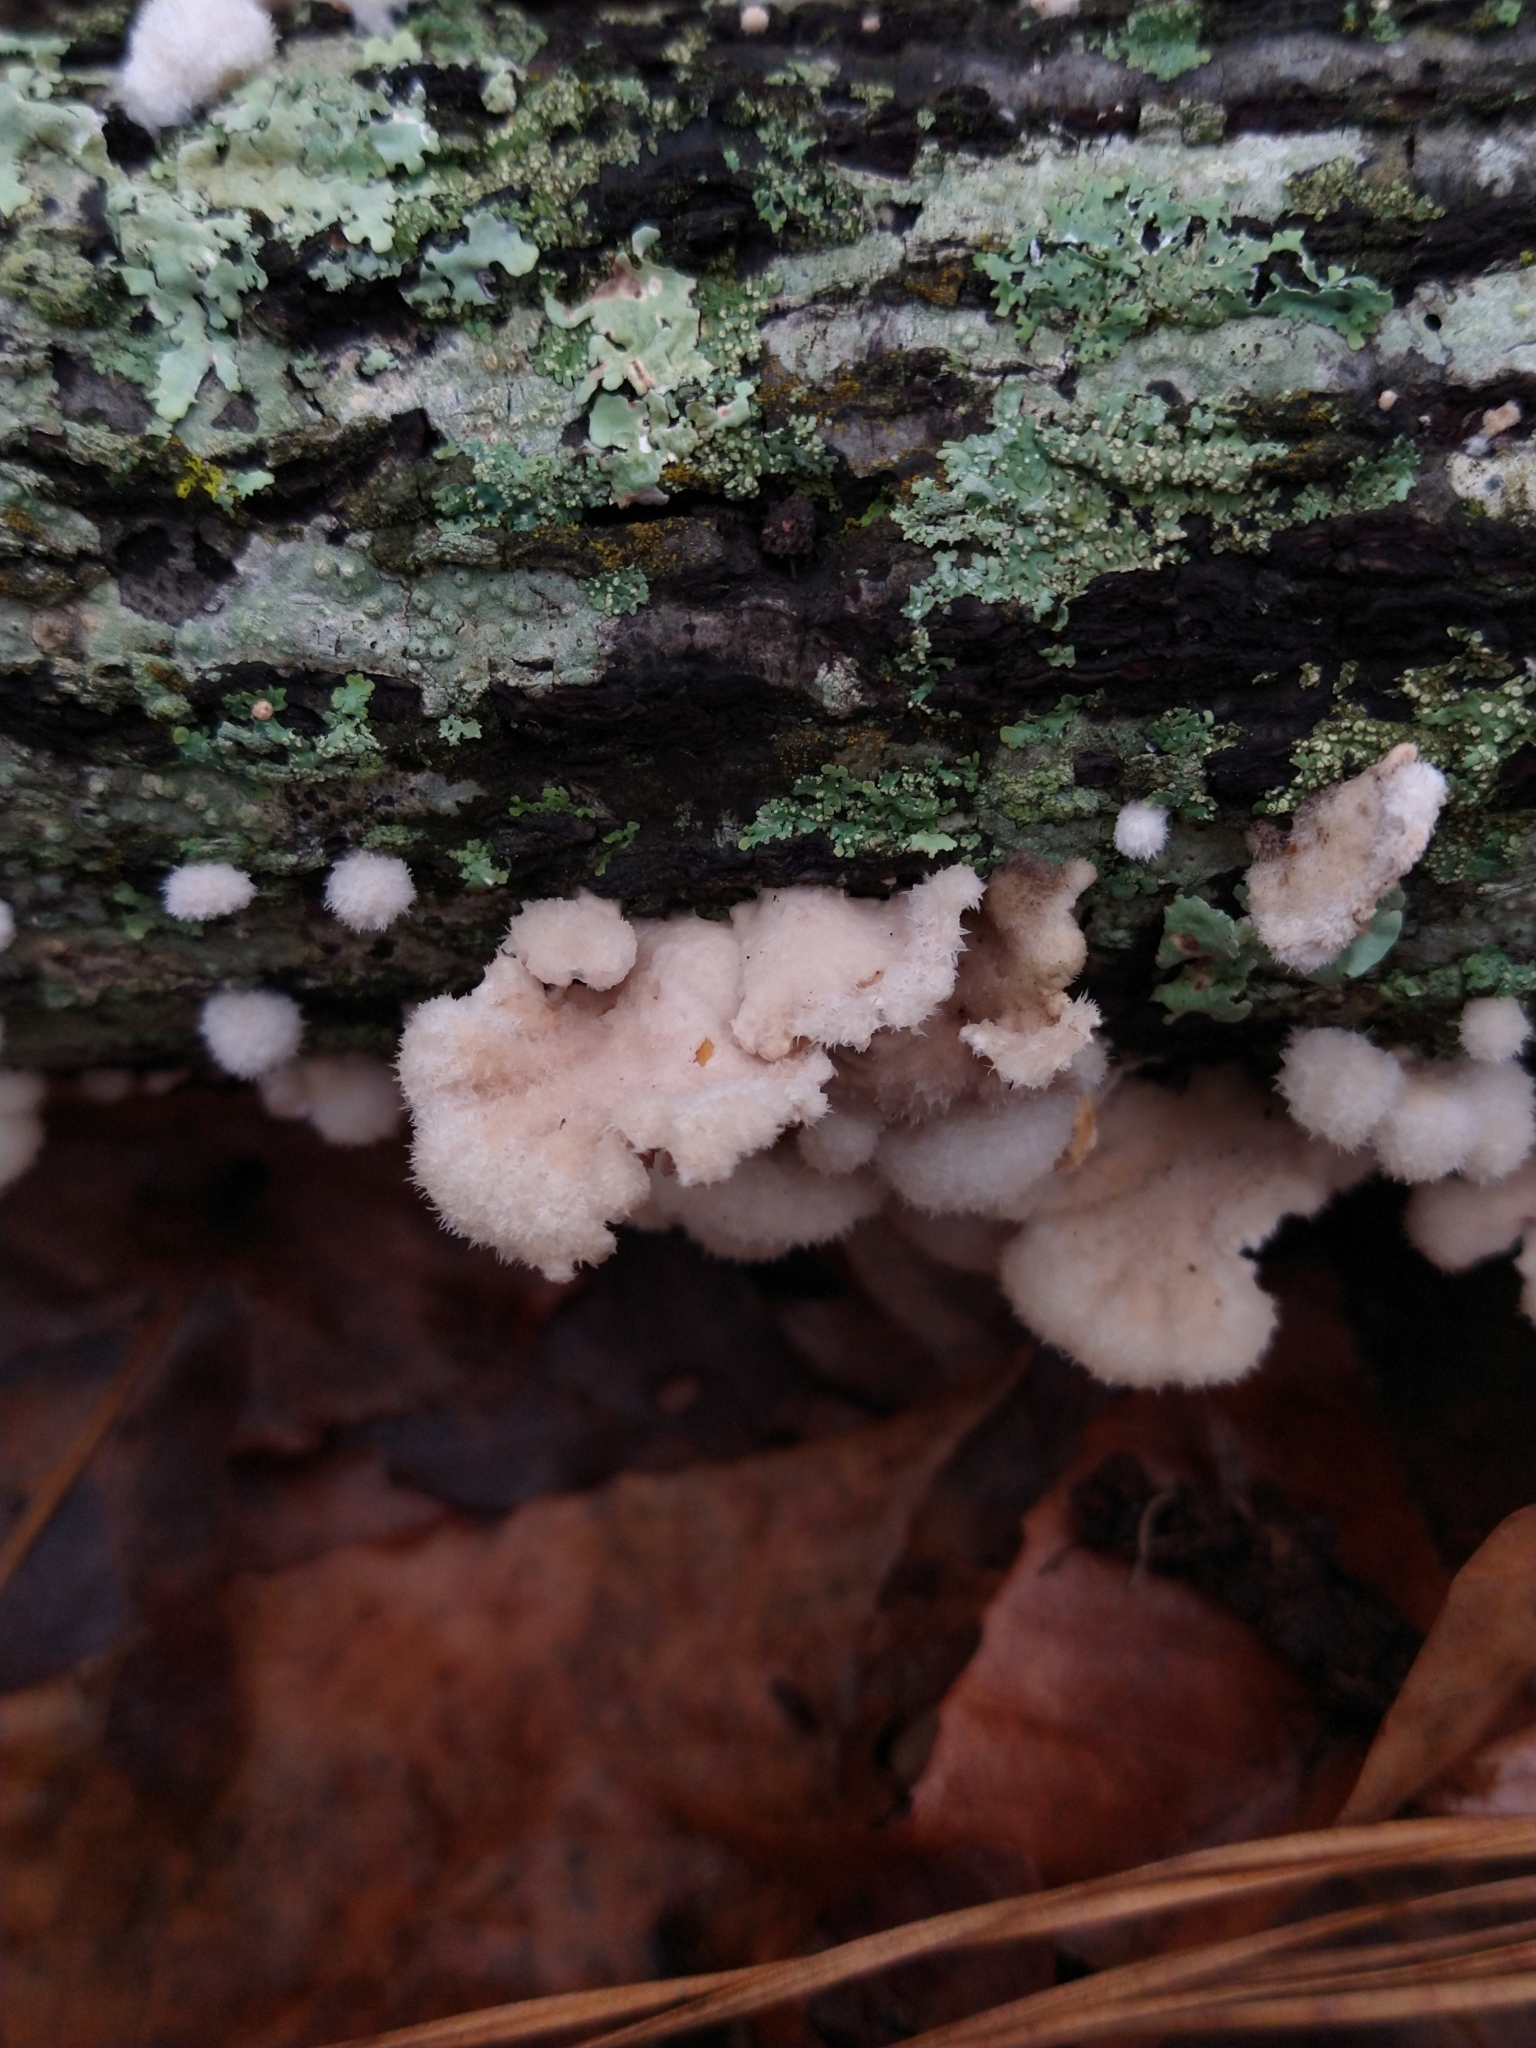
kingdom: Fungi
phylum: Basidiomycota
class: Agaricomycetes
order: Agaricales
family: Schizophyllaceae
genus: Schizophyllum
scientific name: Schizophyllum commune
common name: Common porecrust
